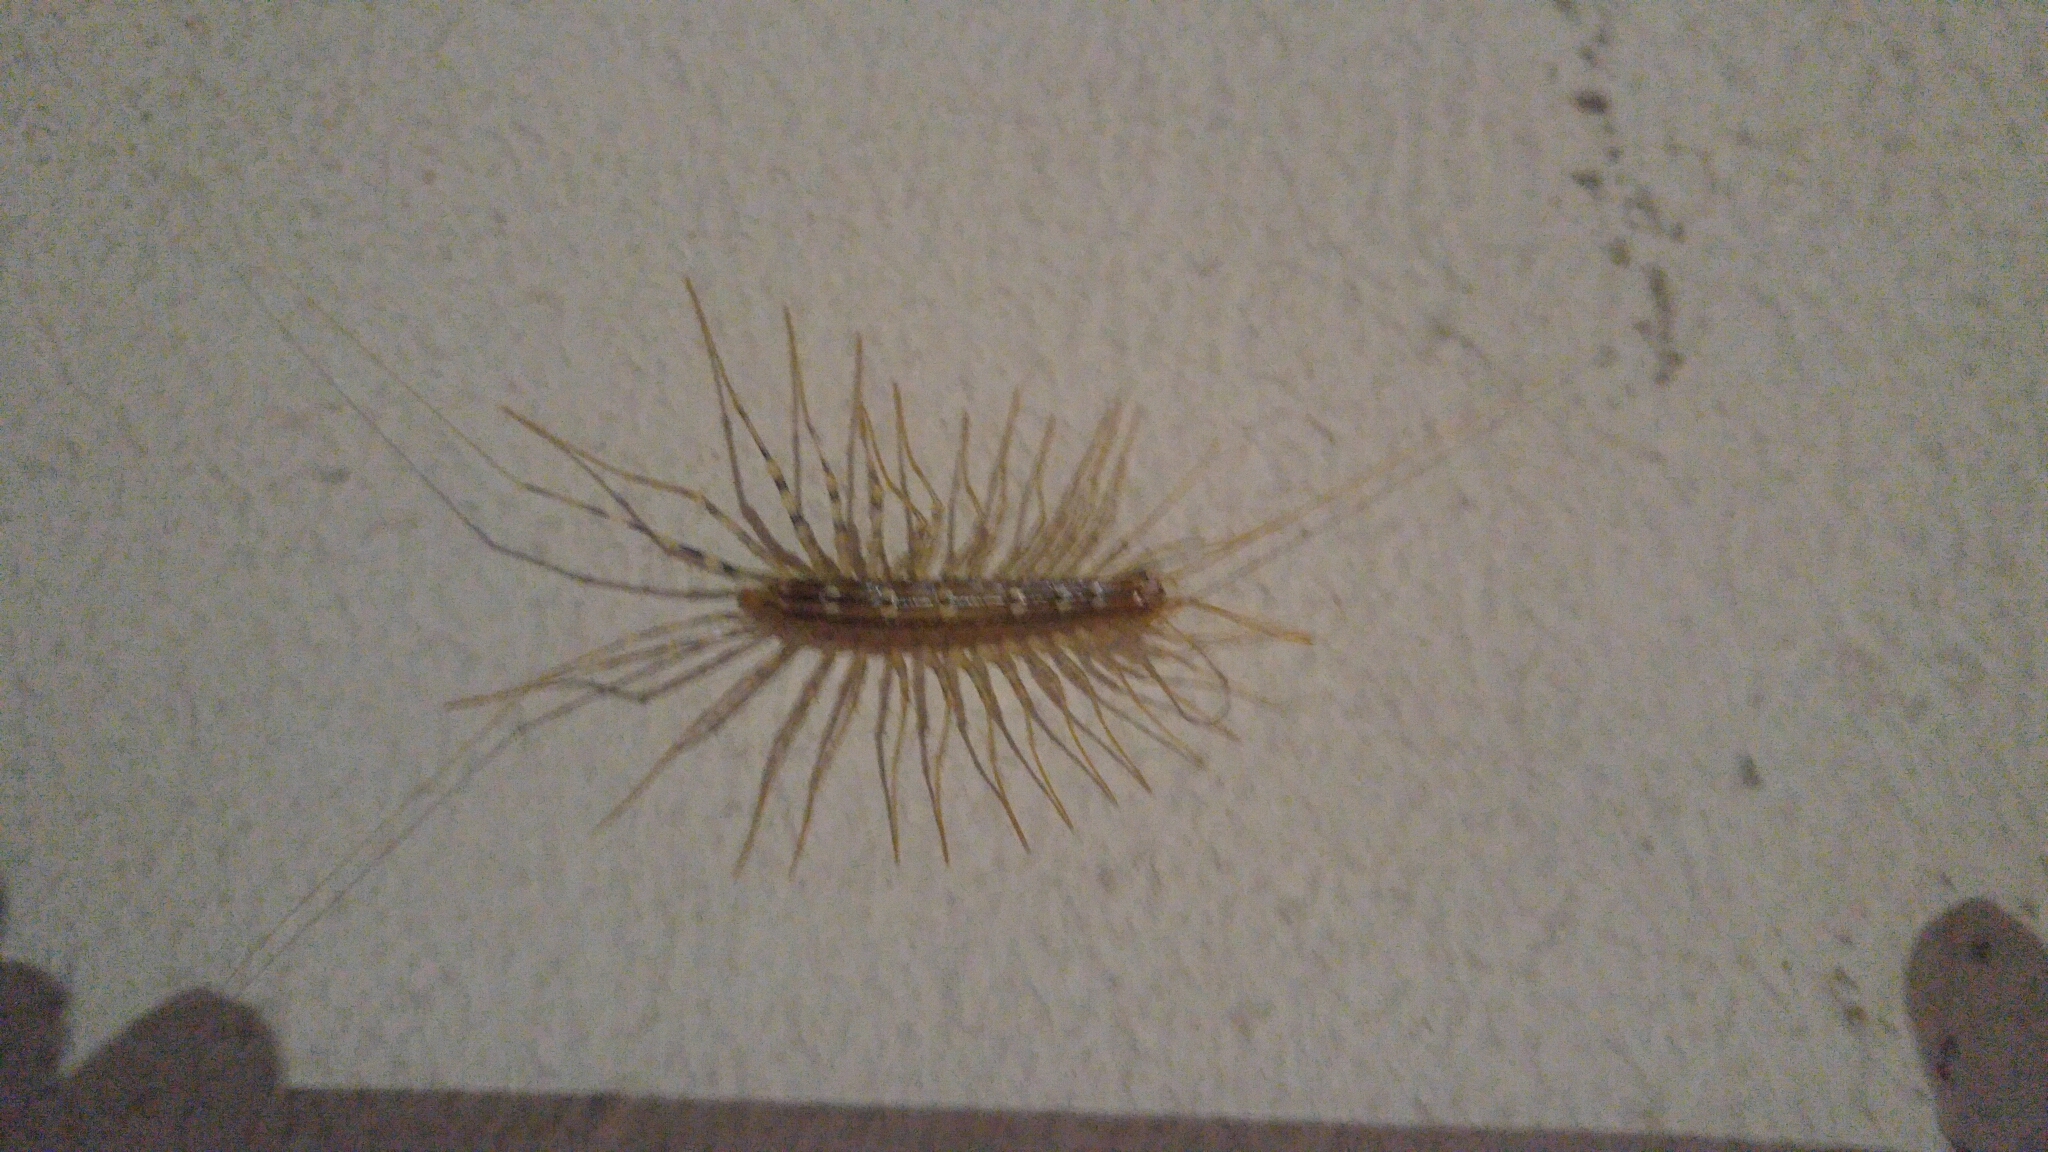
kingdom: Animalia
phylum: Arthropoda
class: Chilopoda
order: Scutigeromorpha
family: Scutigeridae
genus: Scutigera
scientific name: Scutigera coleoptrata
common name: House centipede
